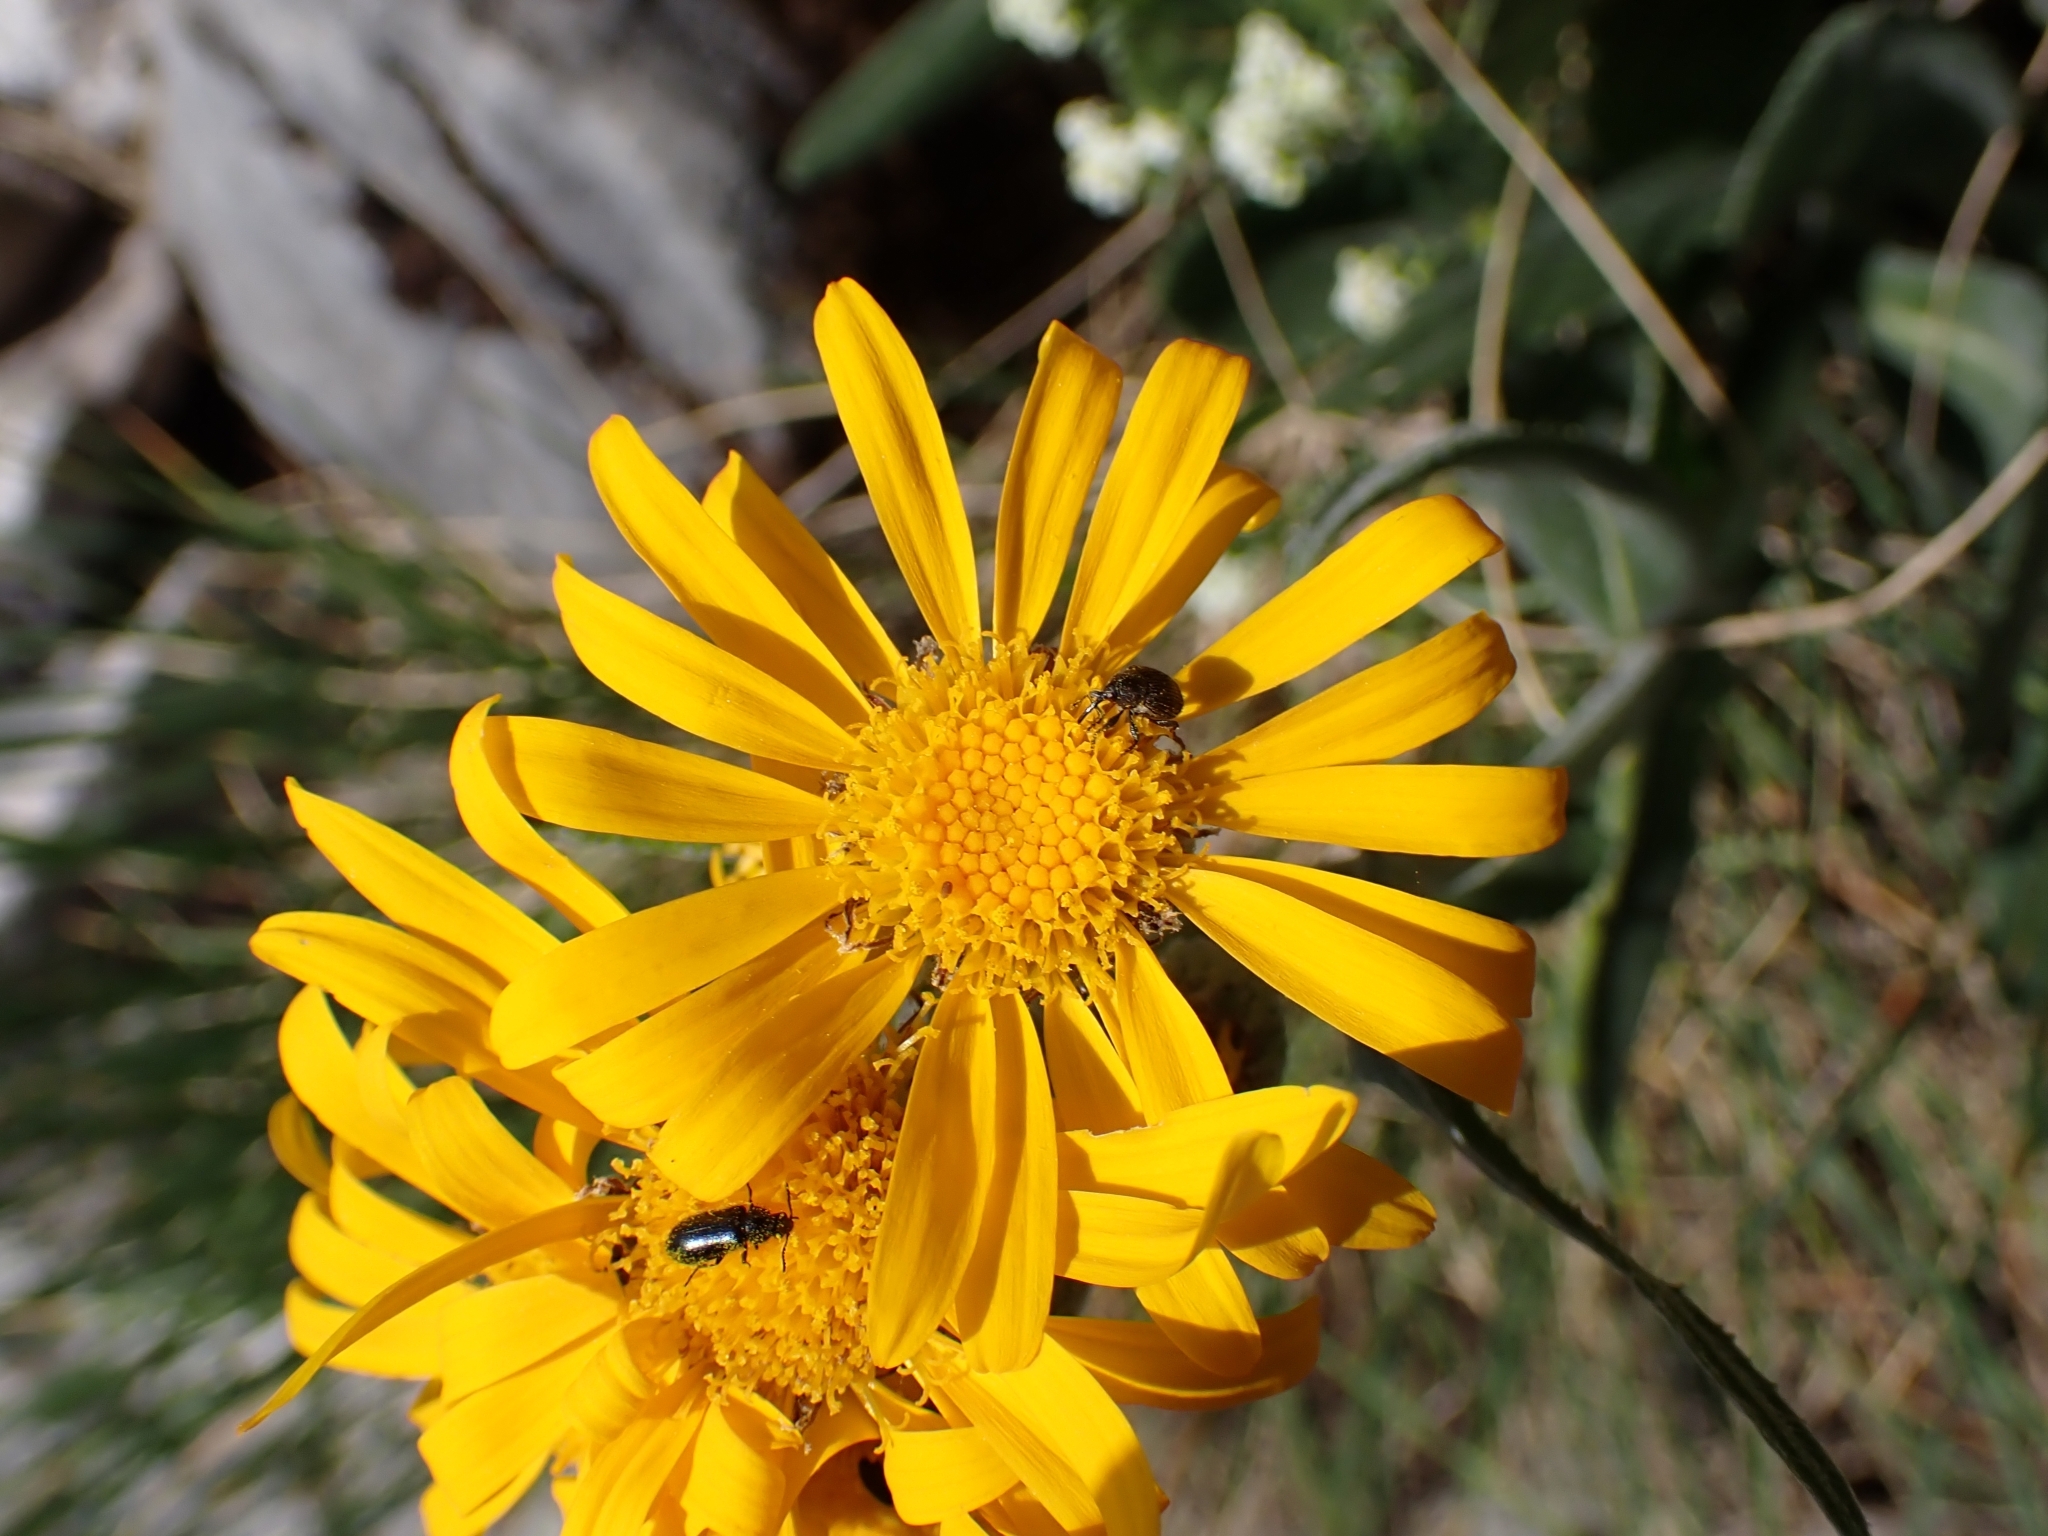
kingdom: Plantae
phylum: Tracheophyta
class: Magnoliopsida
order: Asterales
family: Asteraceae
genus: Senecio
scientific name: Senecio doronicum
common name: Chamois ragwort
